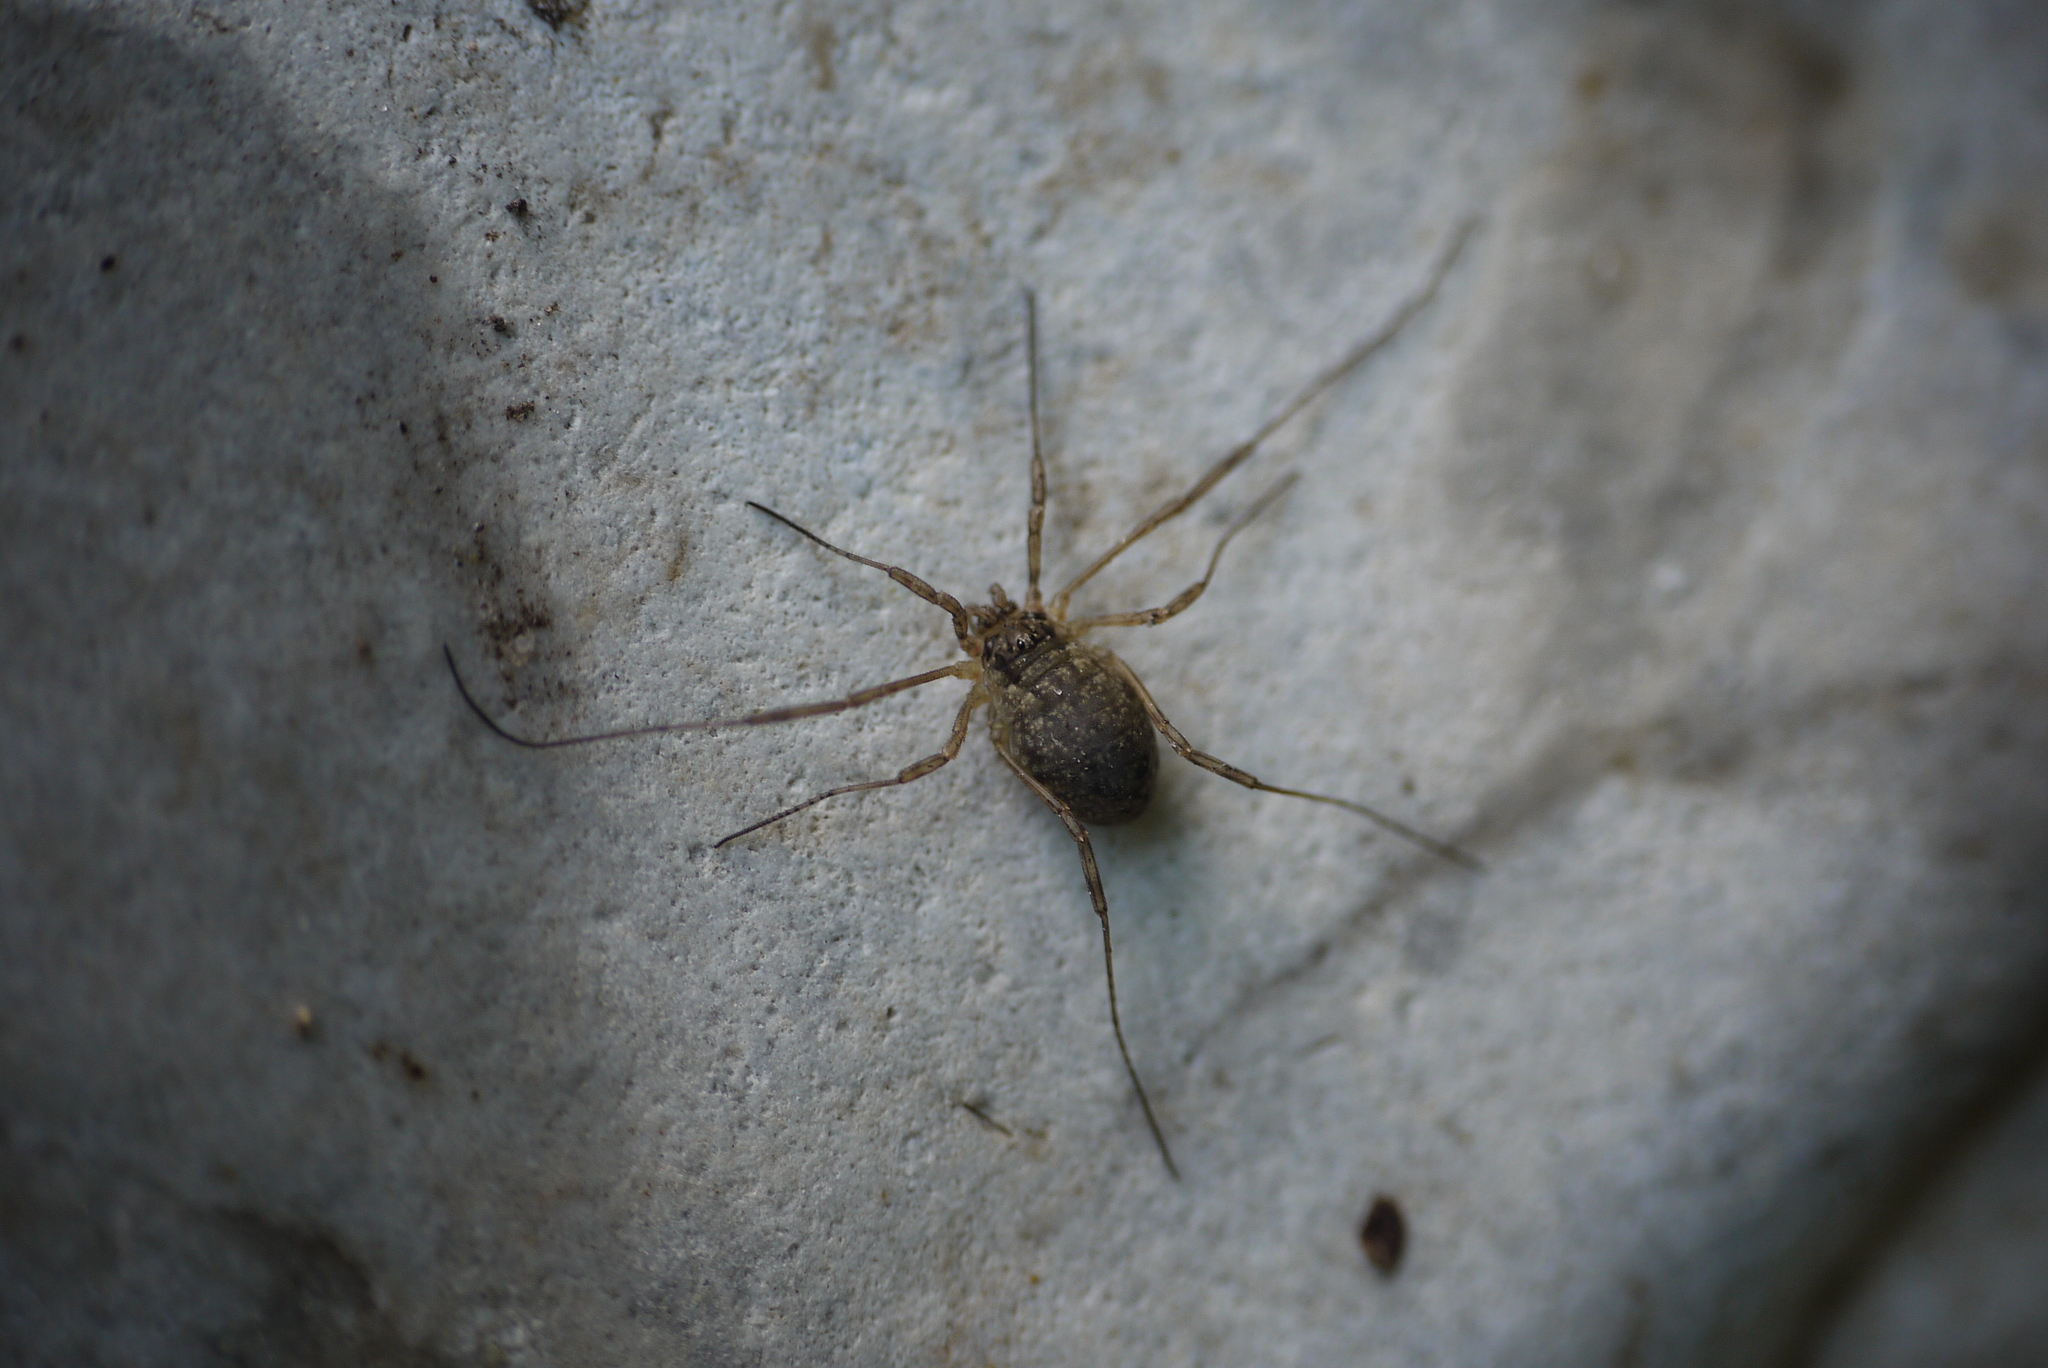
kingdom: Animalia
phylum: Arthropoda
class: Arachnida
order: Opiliones
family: Phalangiidae
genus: Oligolophus
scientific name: Oligolophus tridens
